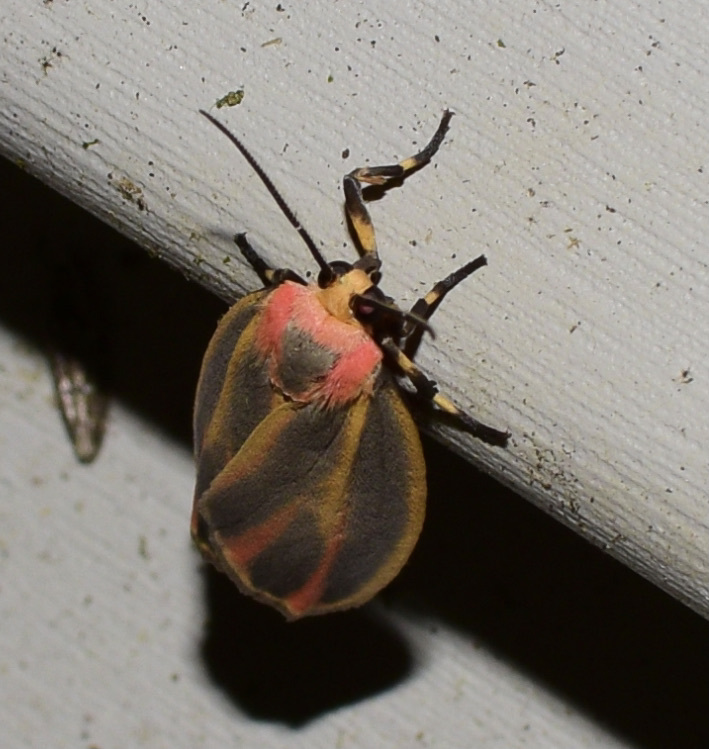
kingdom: Animalia
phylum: Arthropoda
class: Insecta
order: Lepidoptera
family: Erebidae
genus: Hypoprepia
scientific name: Hypoprepia fucosa
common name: Painted lichen moth
